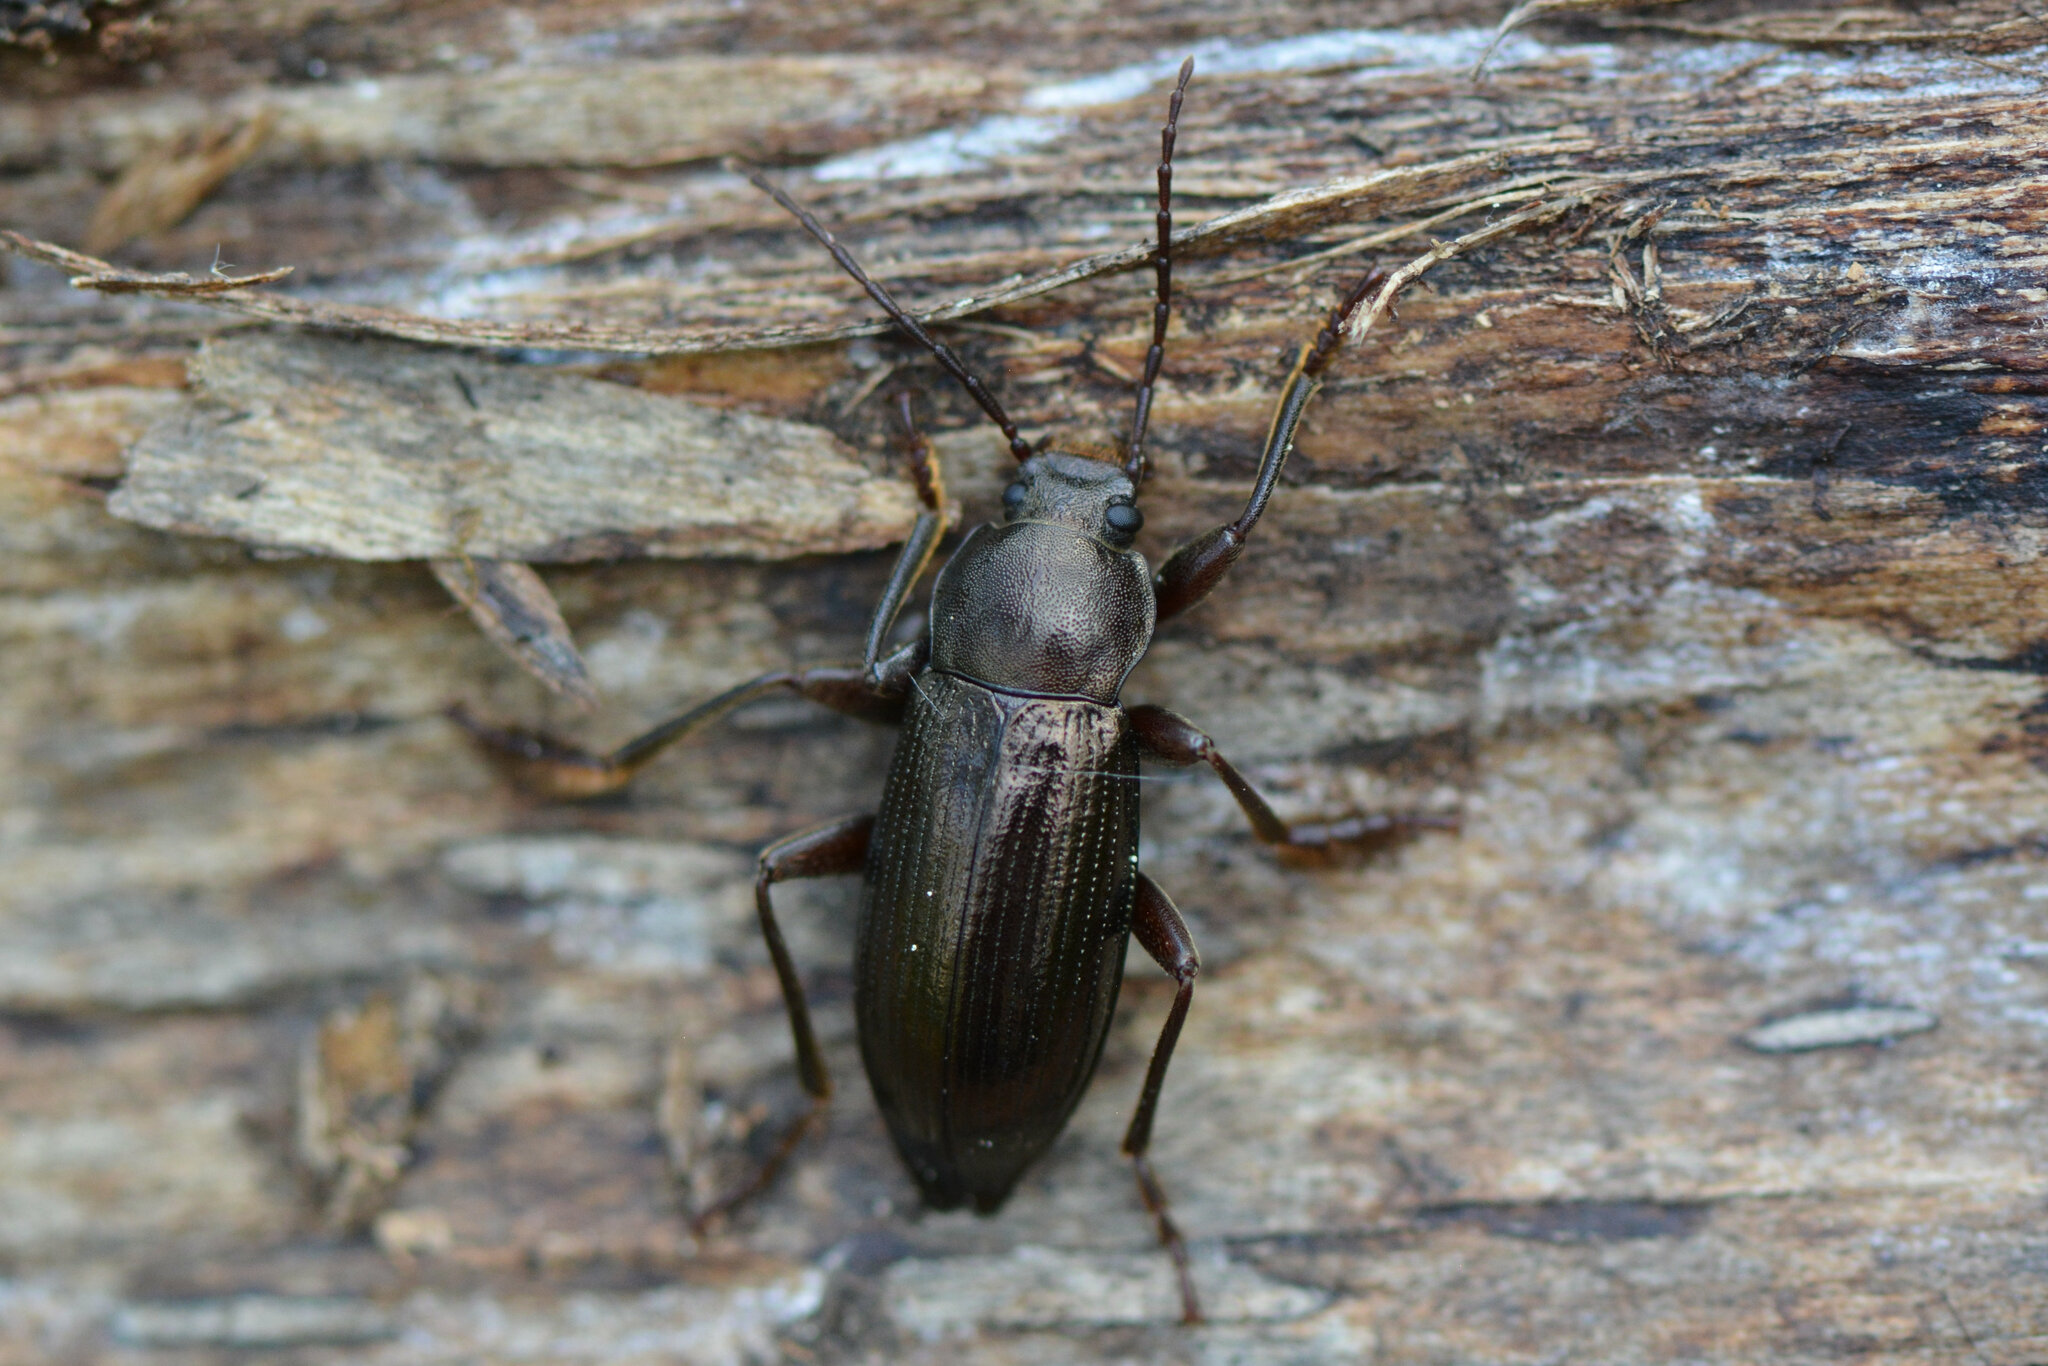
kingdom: Animalia
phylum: Arthropoda
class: Insecta
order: Coleoptera
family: Tenebrionidae
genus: Stenomax
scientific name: Stenomax aeneus
